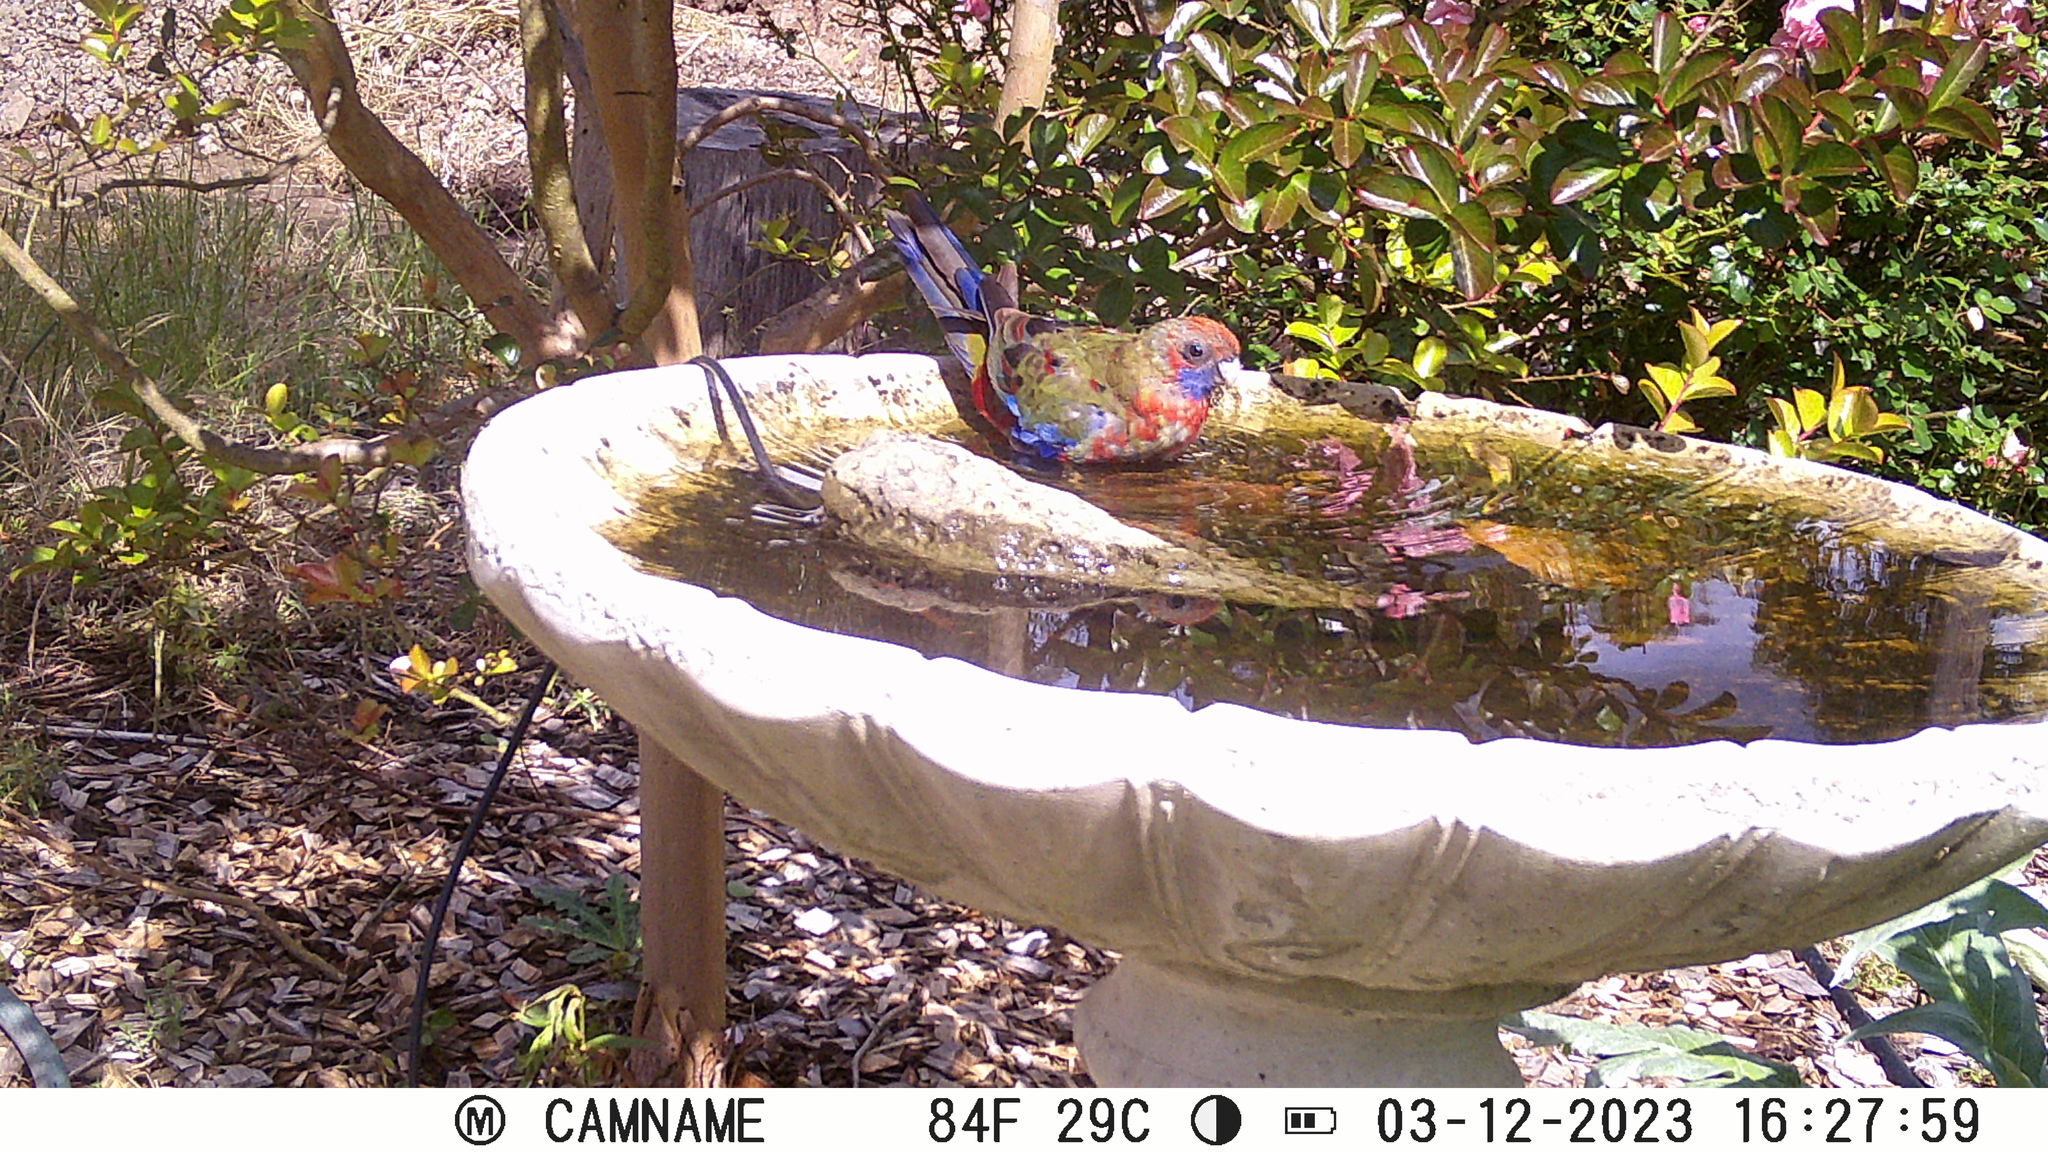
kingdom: Animalia
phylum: Chordata
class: Aves
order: Psittaciformes
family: Psittacidae
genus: Platycercus
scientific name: Platycercus elegans
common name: Crimson rosella
